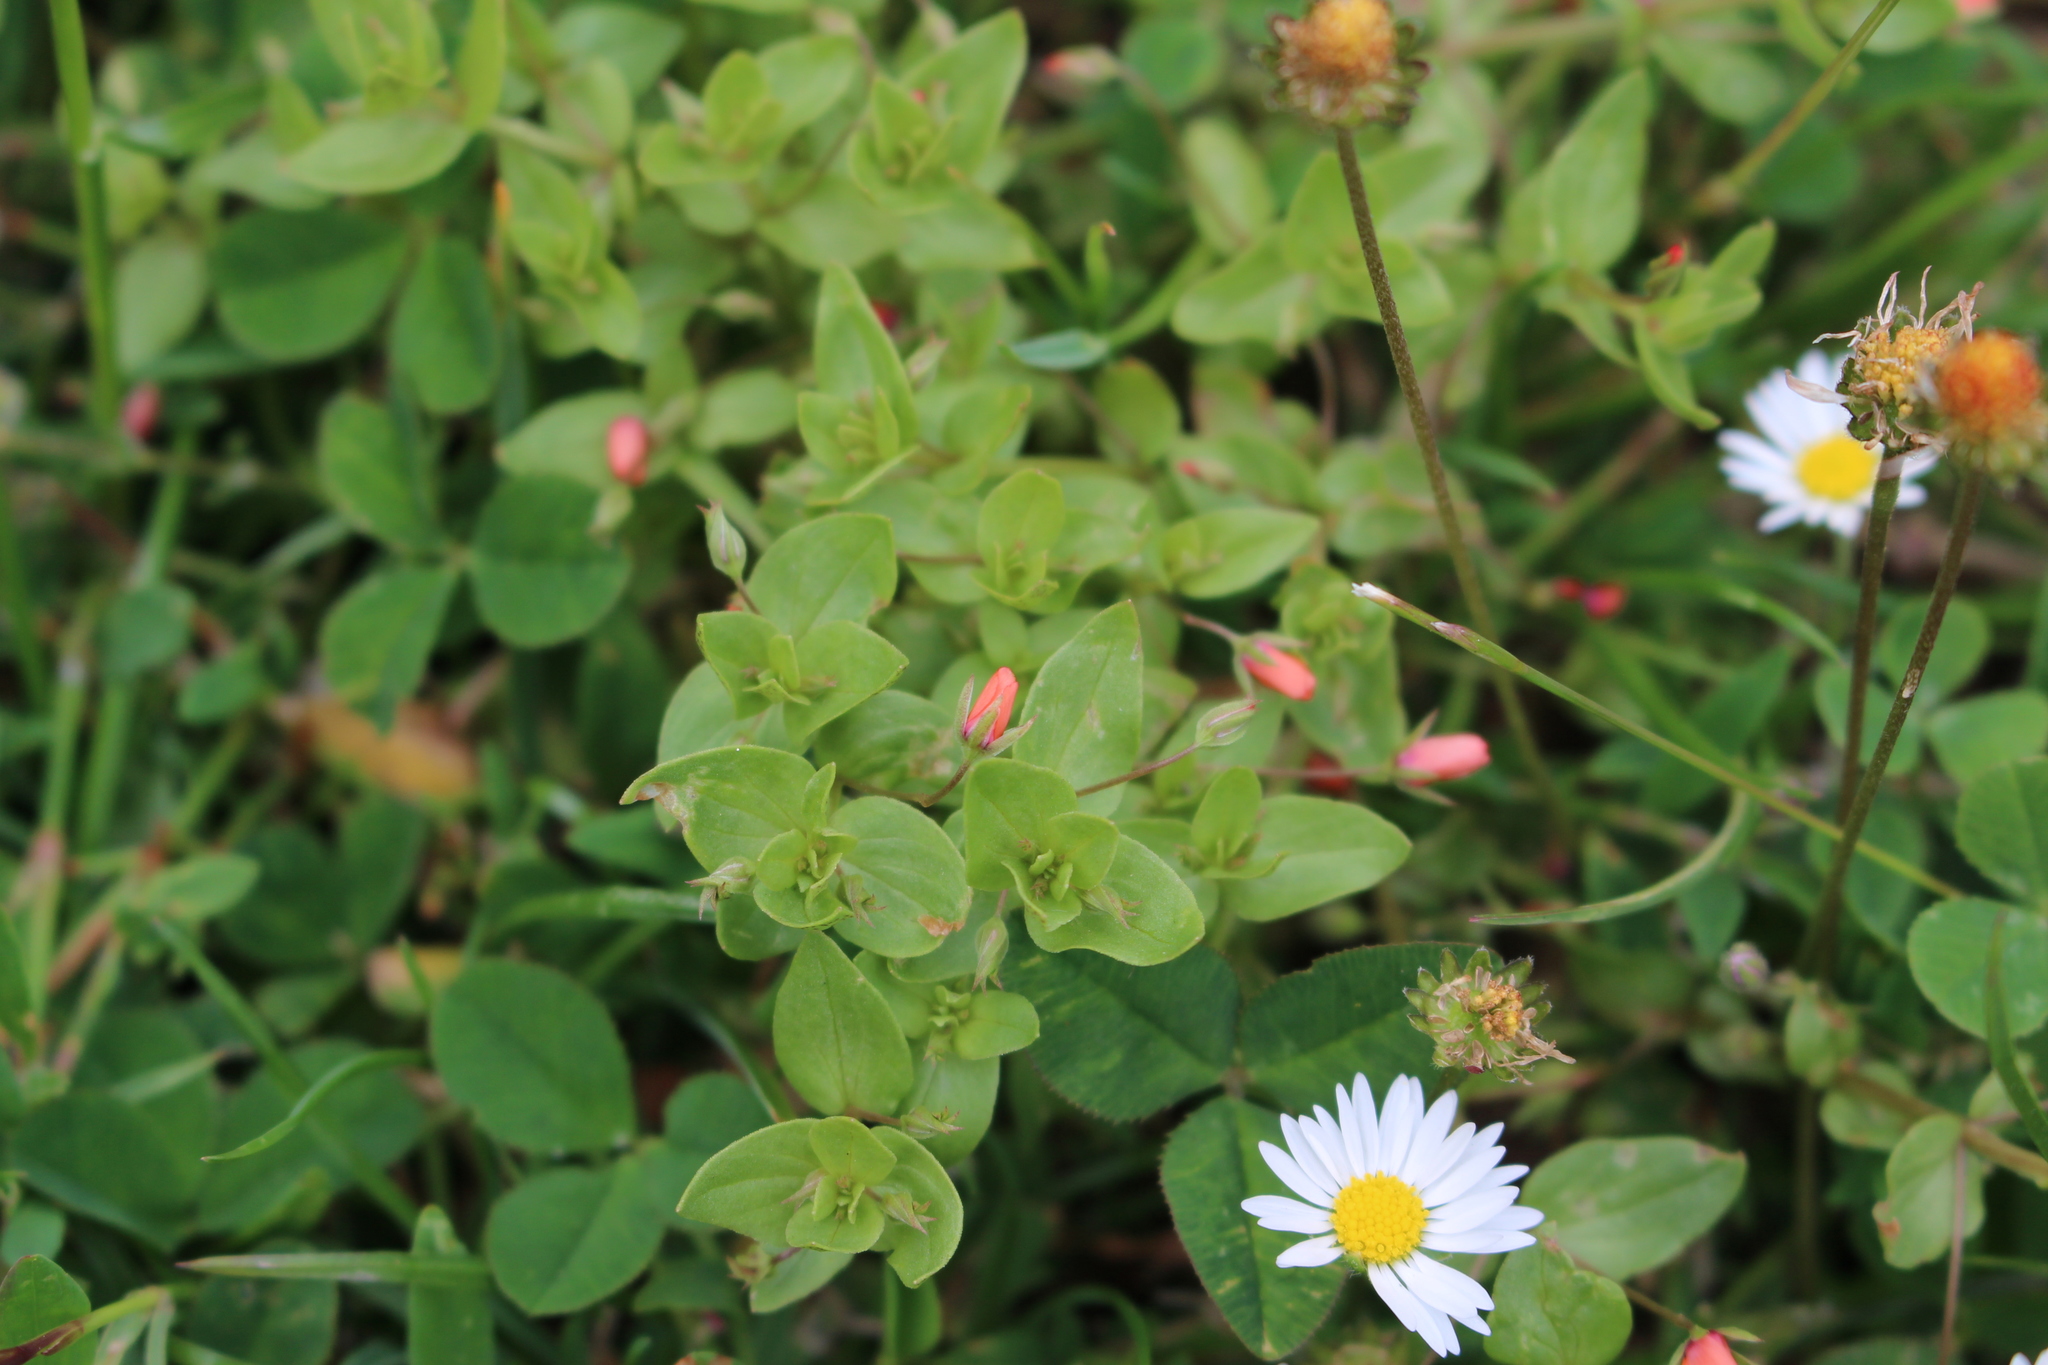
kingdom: Plantae
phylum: Tracheophyta
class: Magnoliopsida
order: Ericales
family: Primulaceae
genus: Lysimachia
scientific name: Lysimachia arvensis
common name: Scarlet pimpernel
